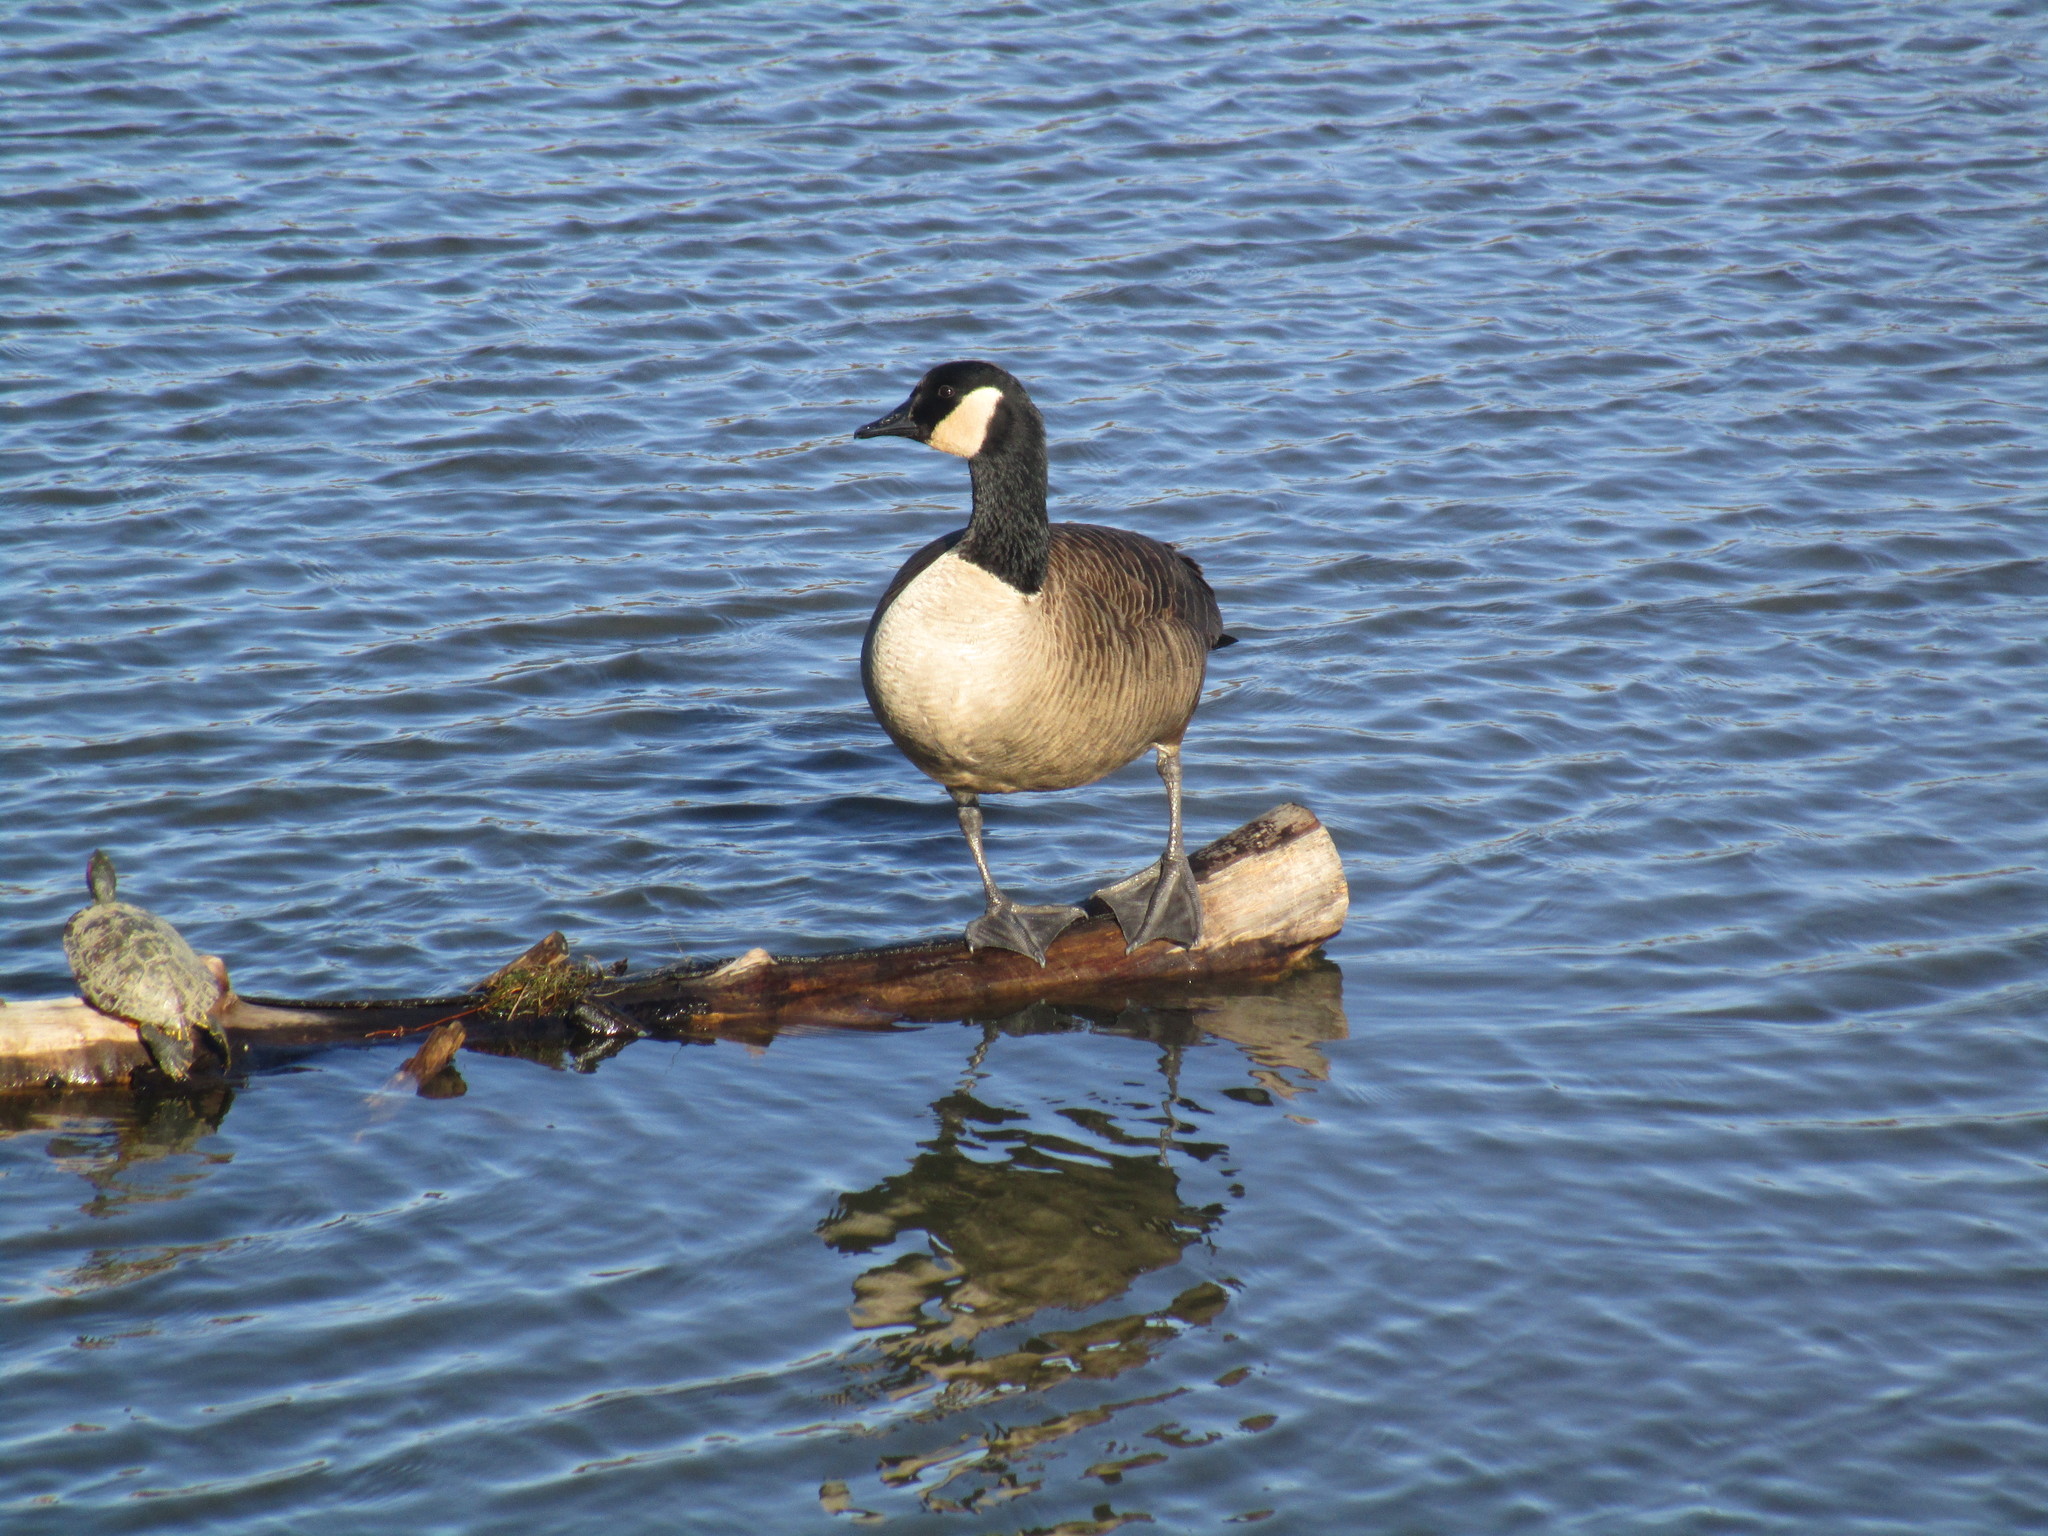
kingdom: Animalia
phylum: Chordata
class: Aves
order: Anseriformes
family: Anatidae
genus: Branta
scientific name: Branta canadensis
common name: Canada goose
